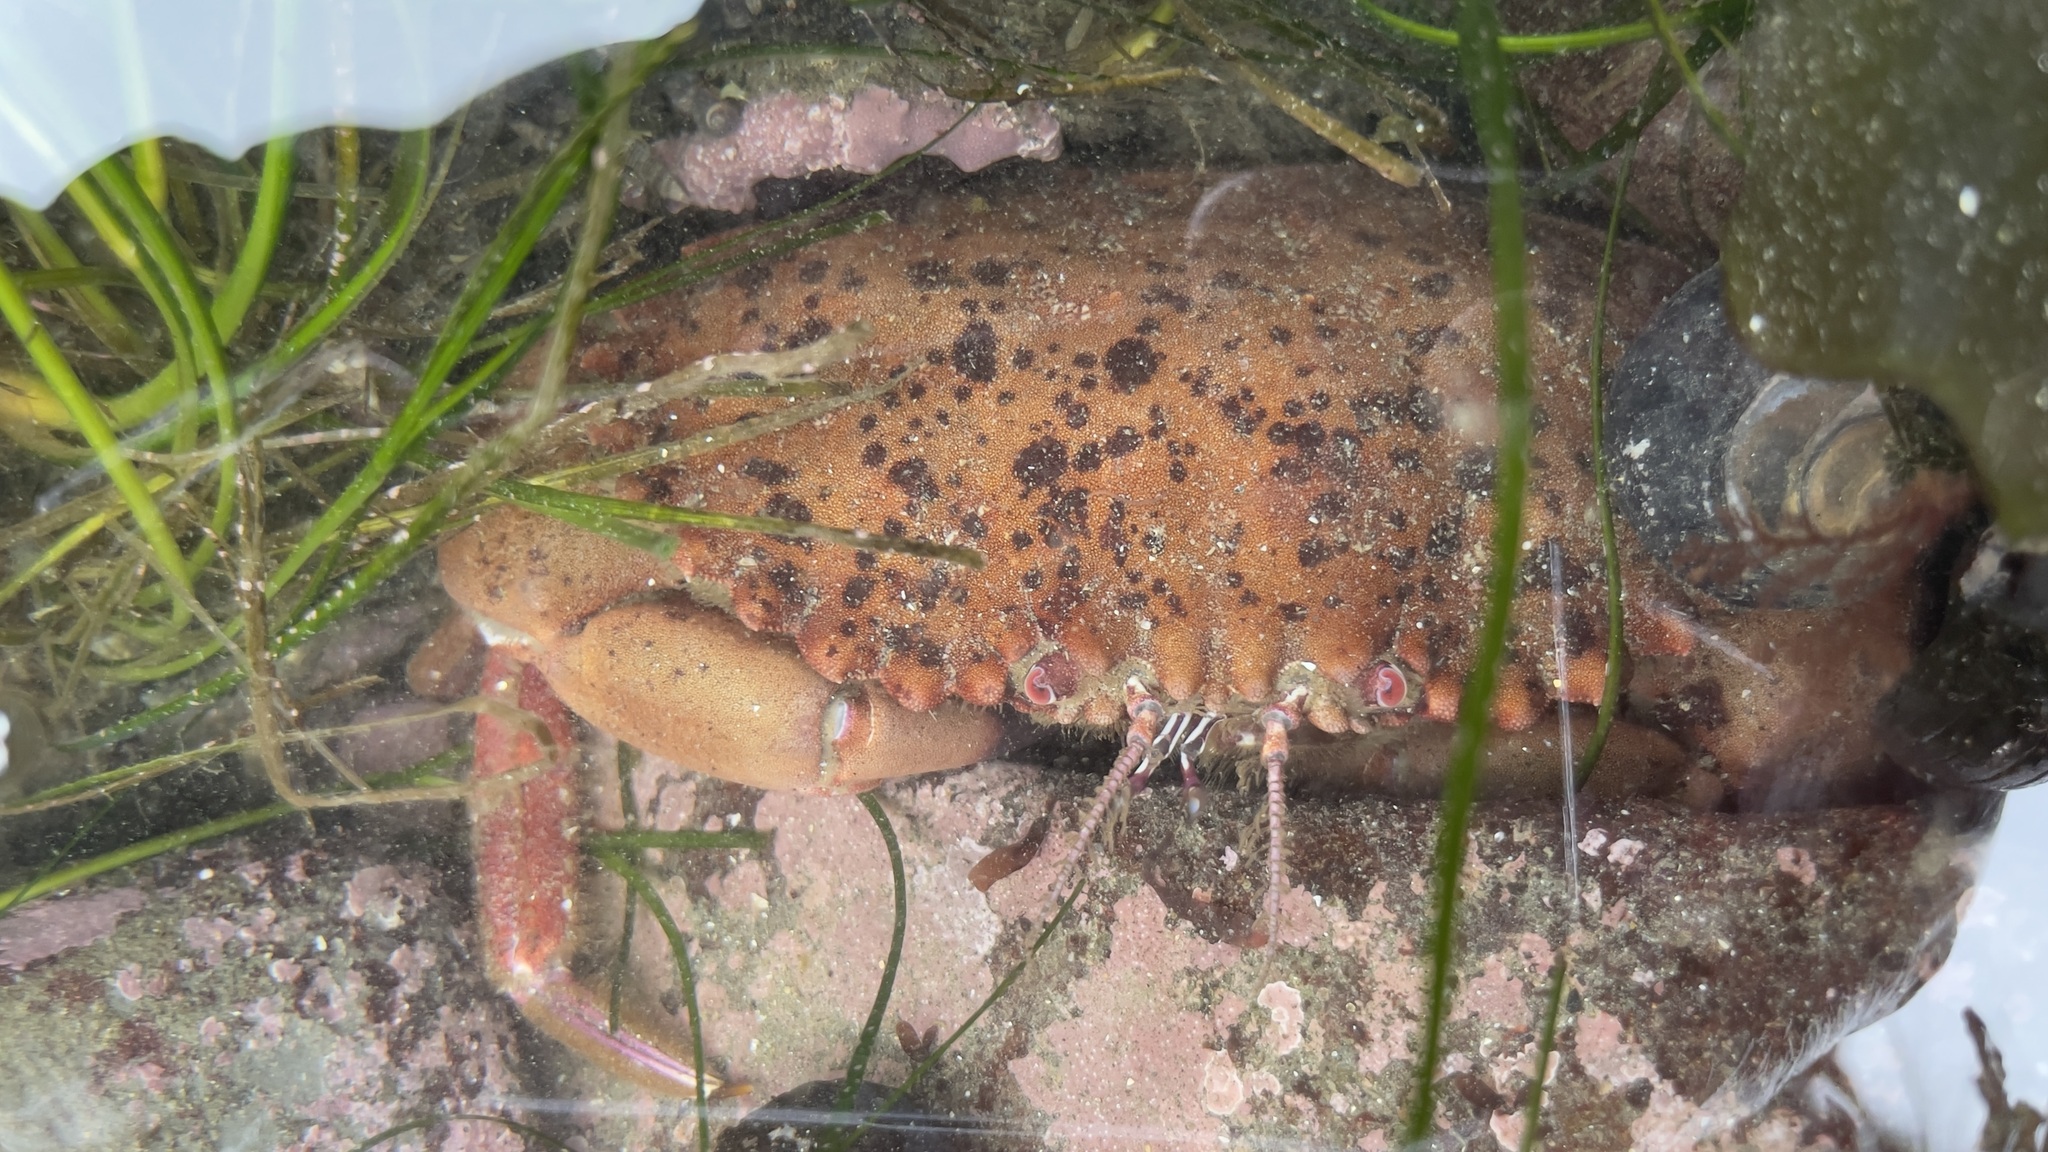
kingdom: Animalia
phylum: Arthropoda
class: Malacostraca
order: Decapoda
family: Cancridae
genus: Romaleon
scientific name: Romaleon antennarium
